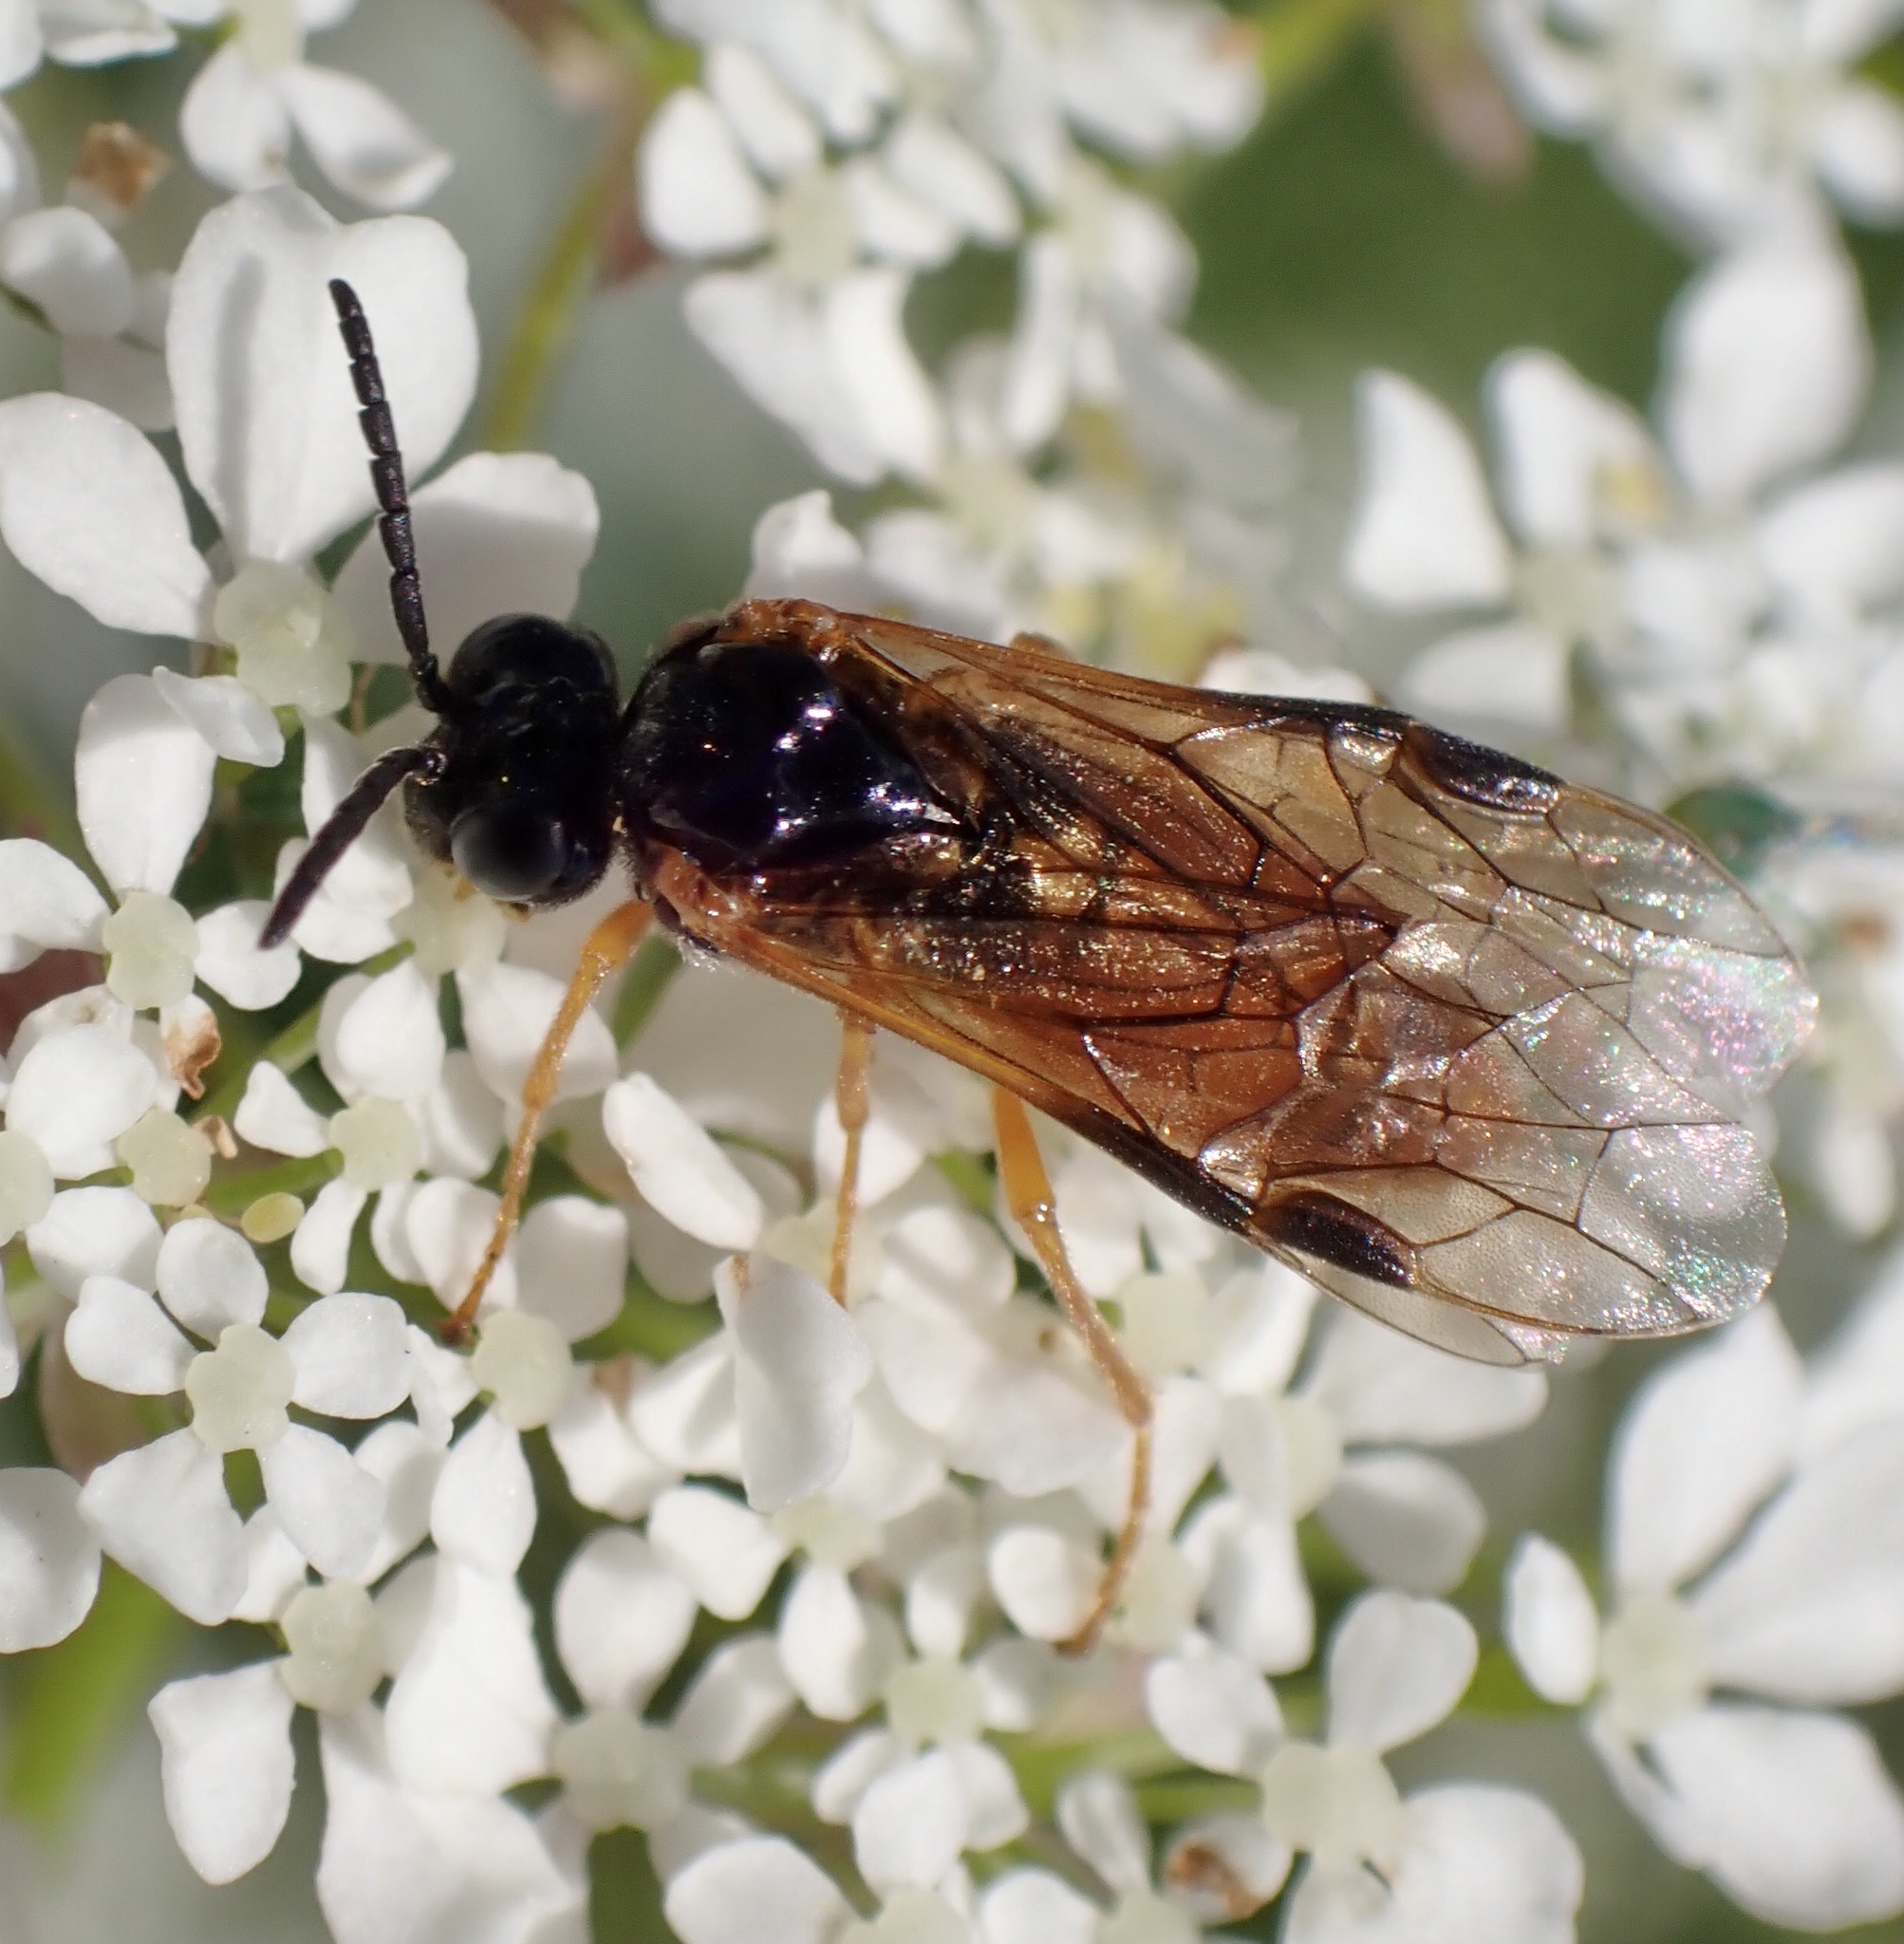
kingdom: Animalia
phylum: Arthropoda
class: Insecta
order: Hymenoptera
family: Tenthredinidae
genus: Selandria
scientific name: Selandria serva
